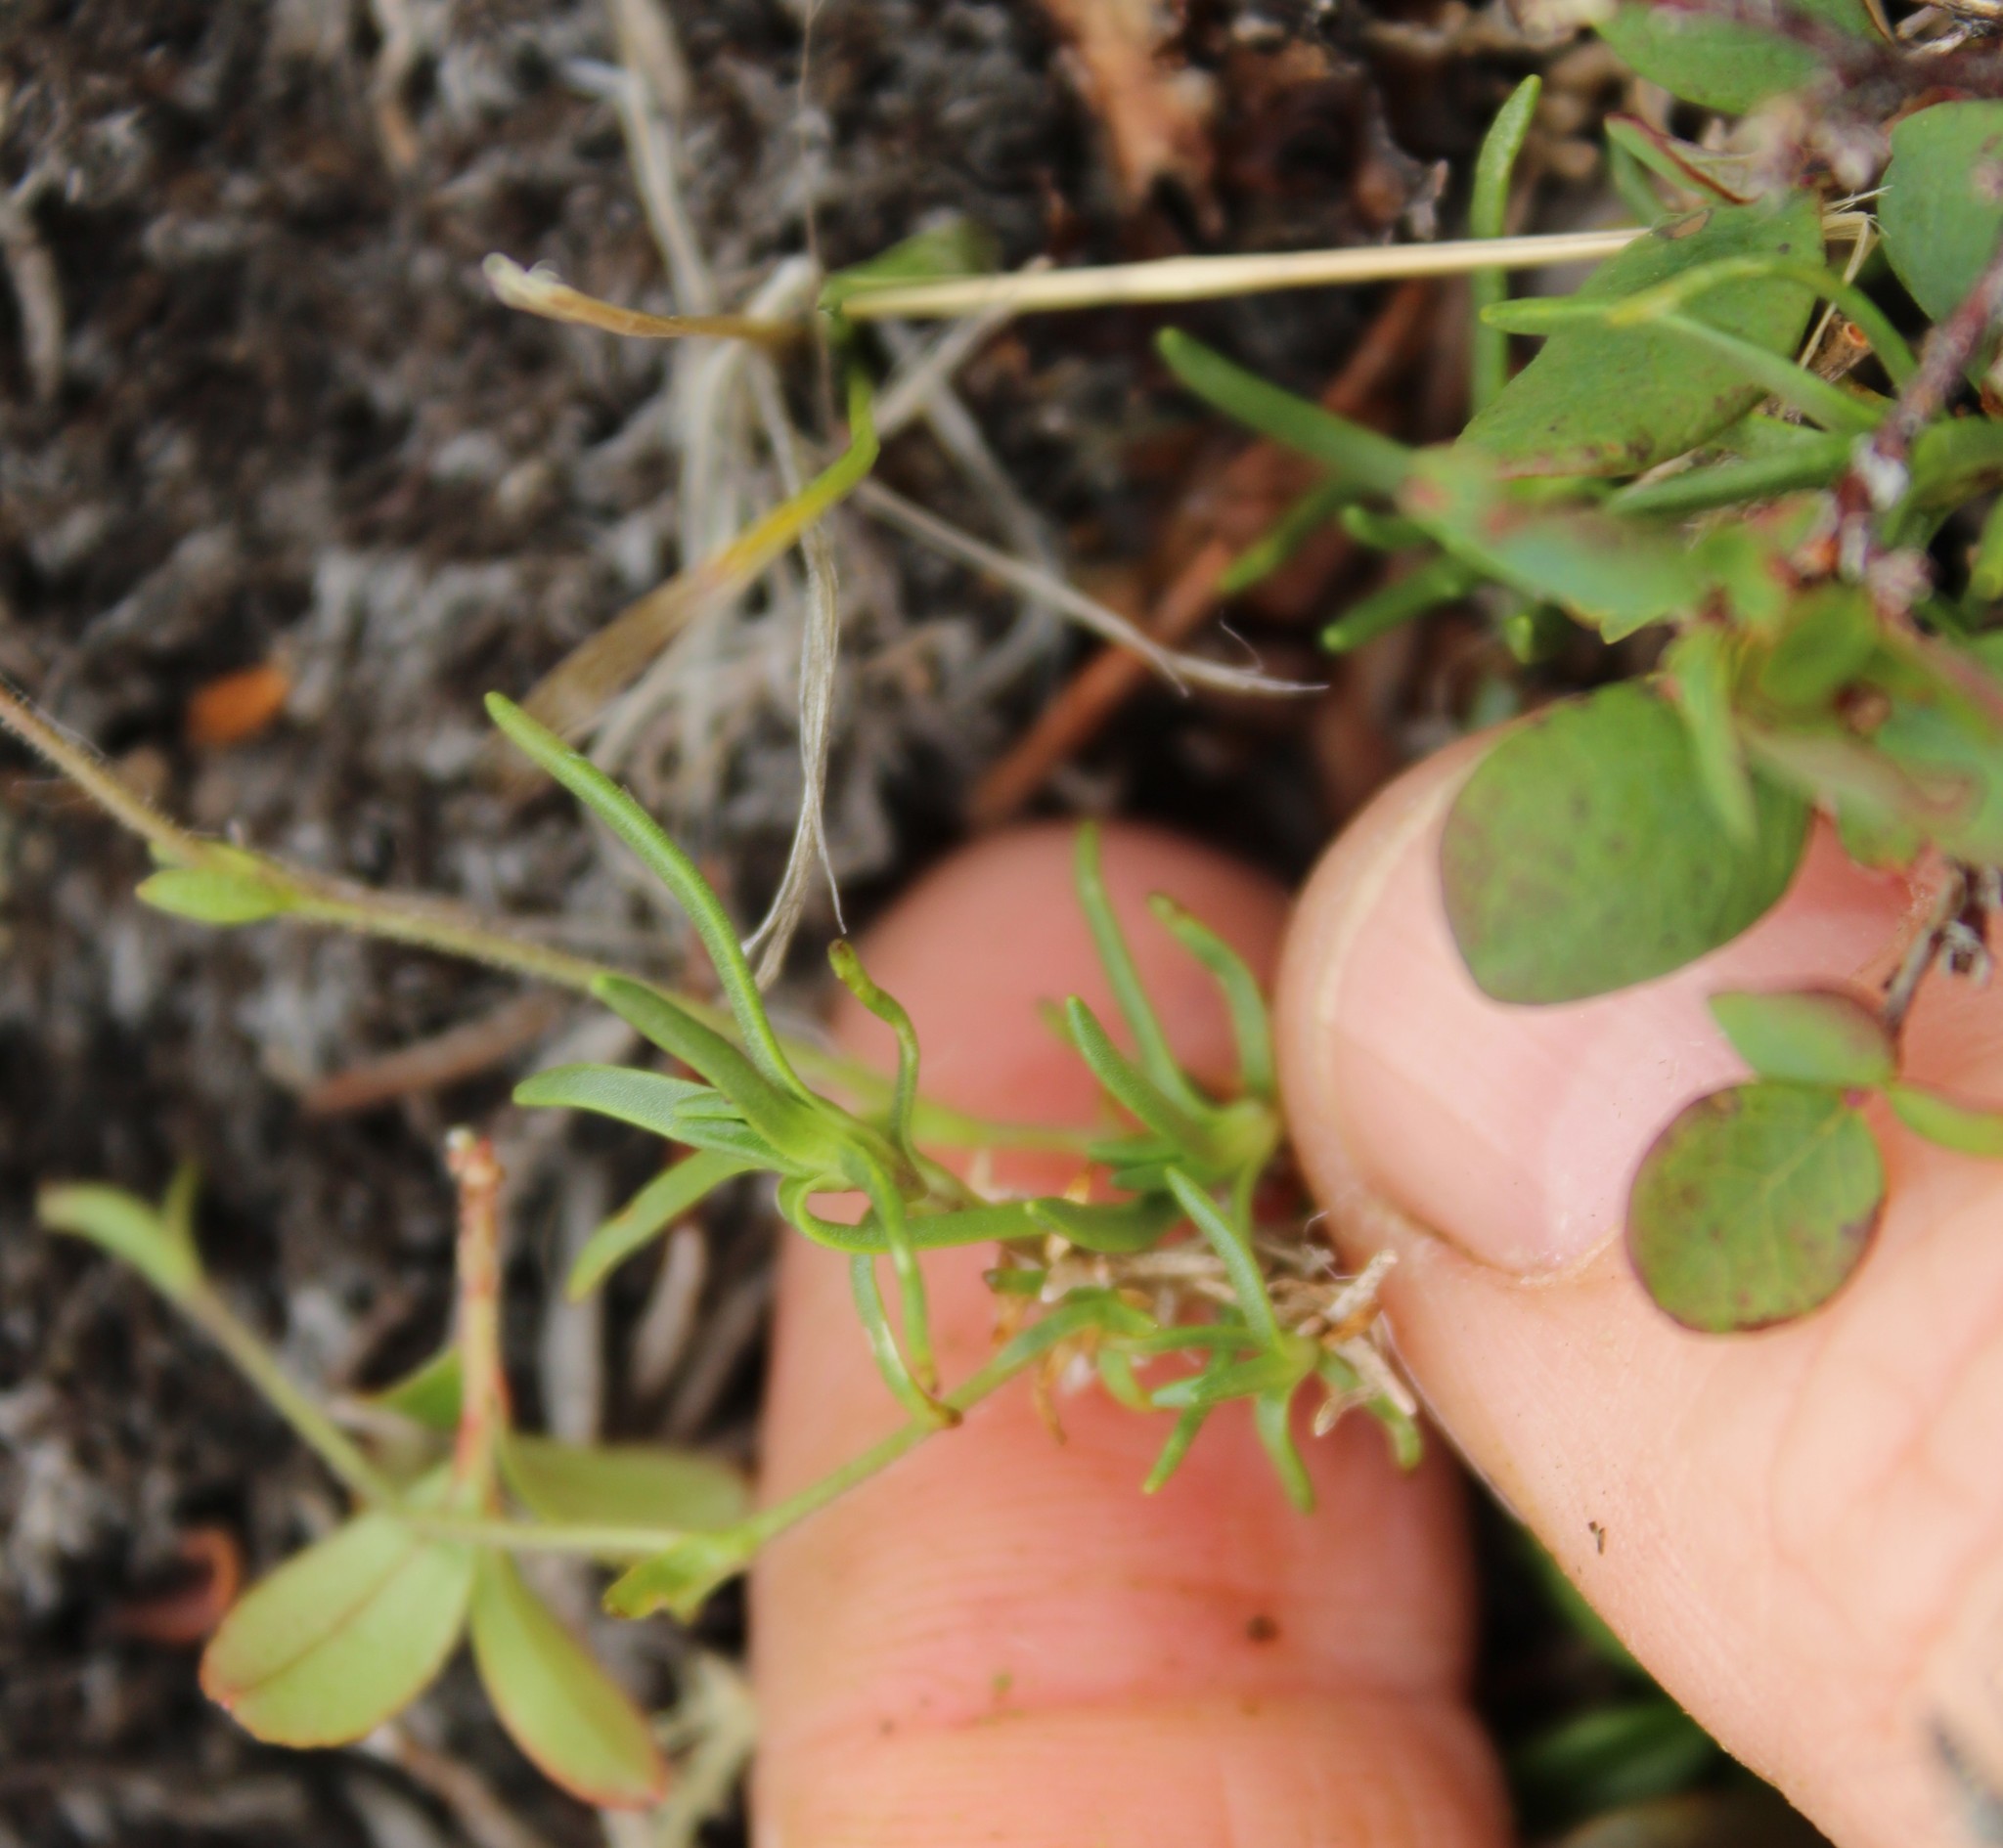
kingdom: Plantae
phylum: Tracheophyta
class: Magnoliopsida
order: Caryophyllales
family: Caryophyllaceae
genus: Cherleria
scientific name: Cherleria arctica
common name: Arctic sandwort
